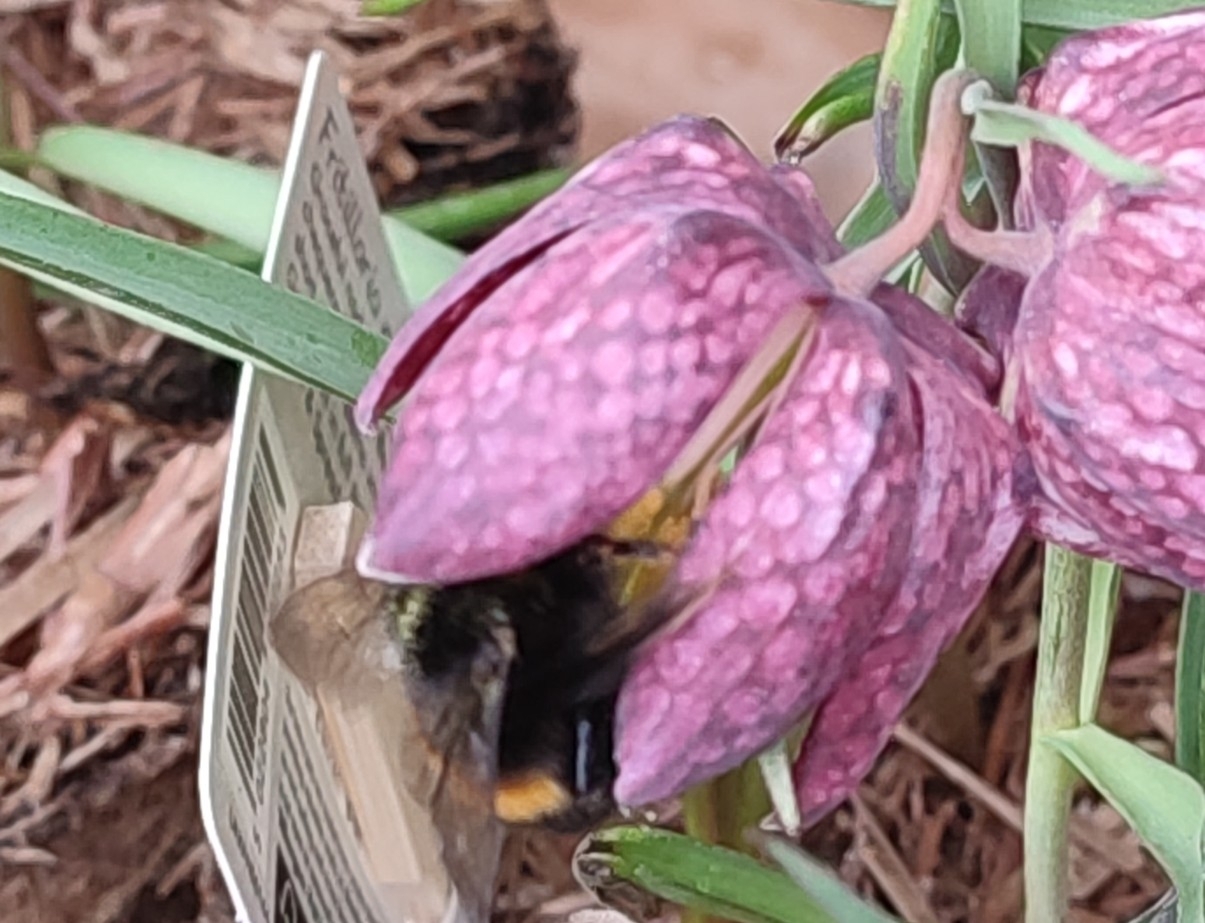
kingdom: Animalia
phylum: Arthropoda
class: Insecta
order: Hymenoptera
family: Apidae
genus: Bombus
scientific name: Bombus terrestris
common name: Buff-tailed bumblebee
